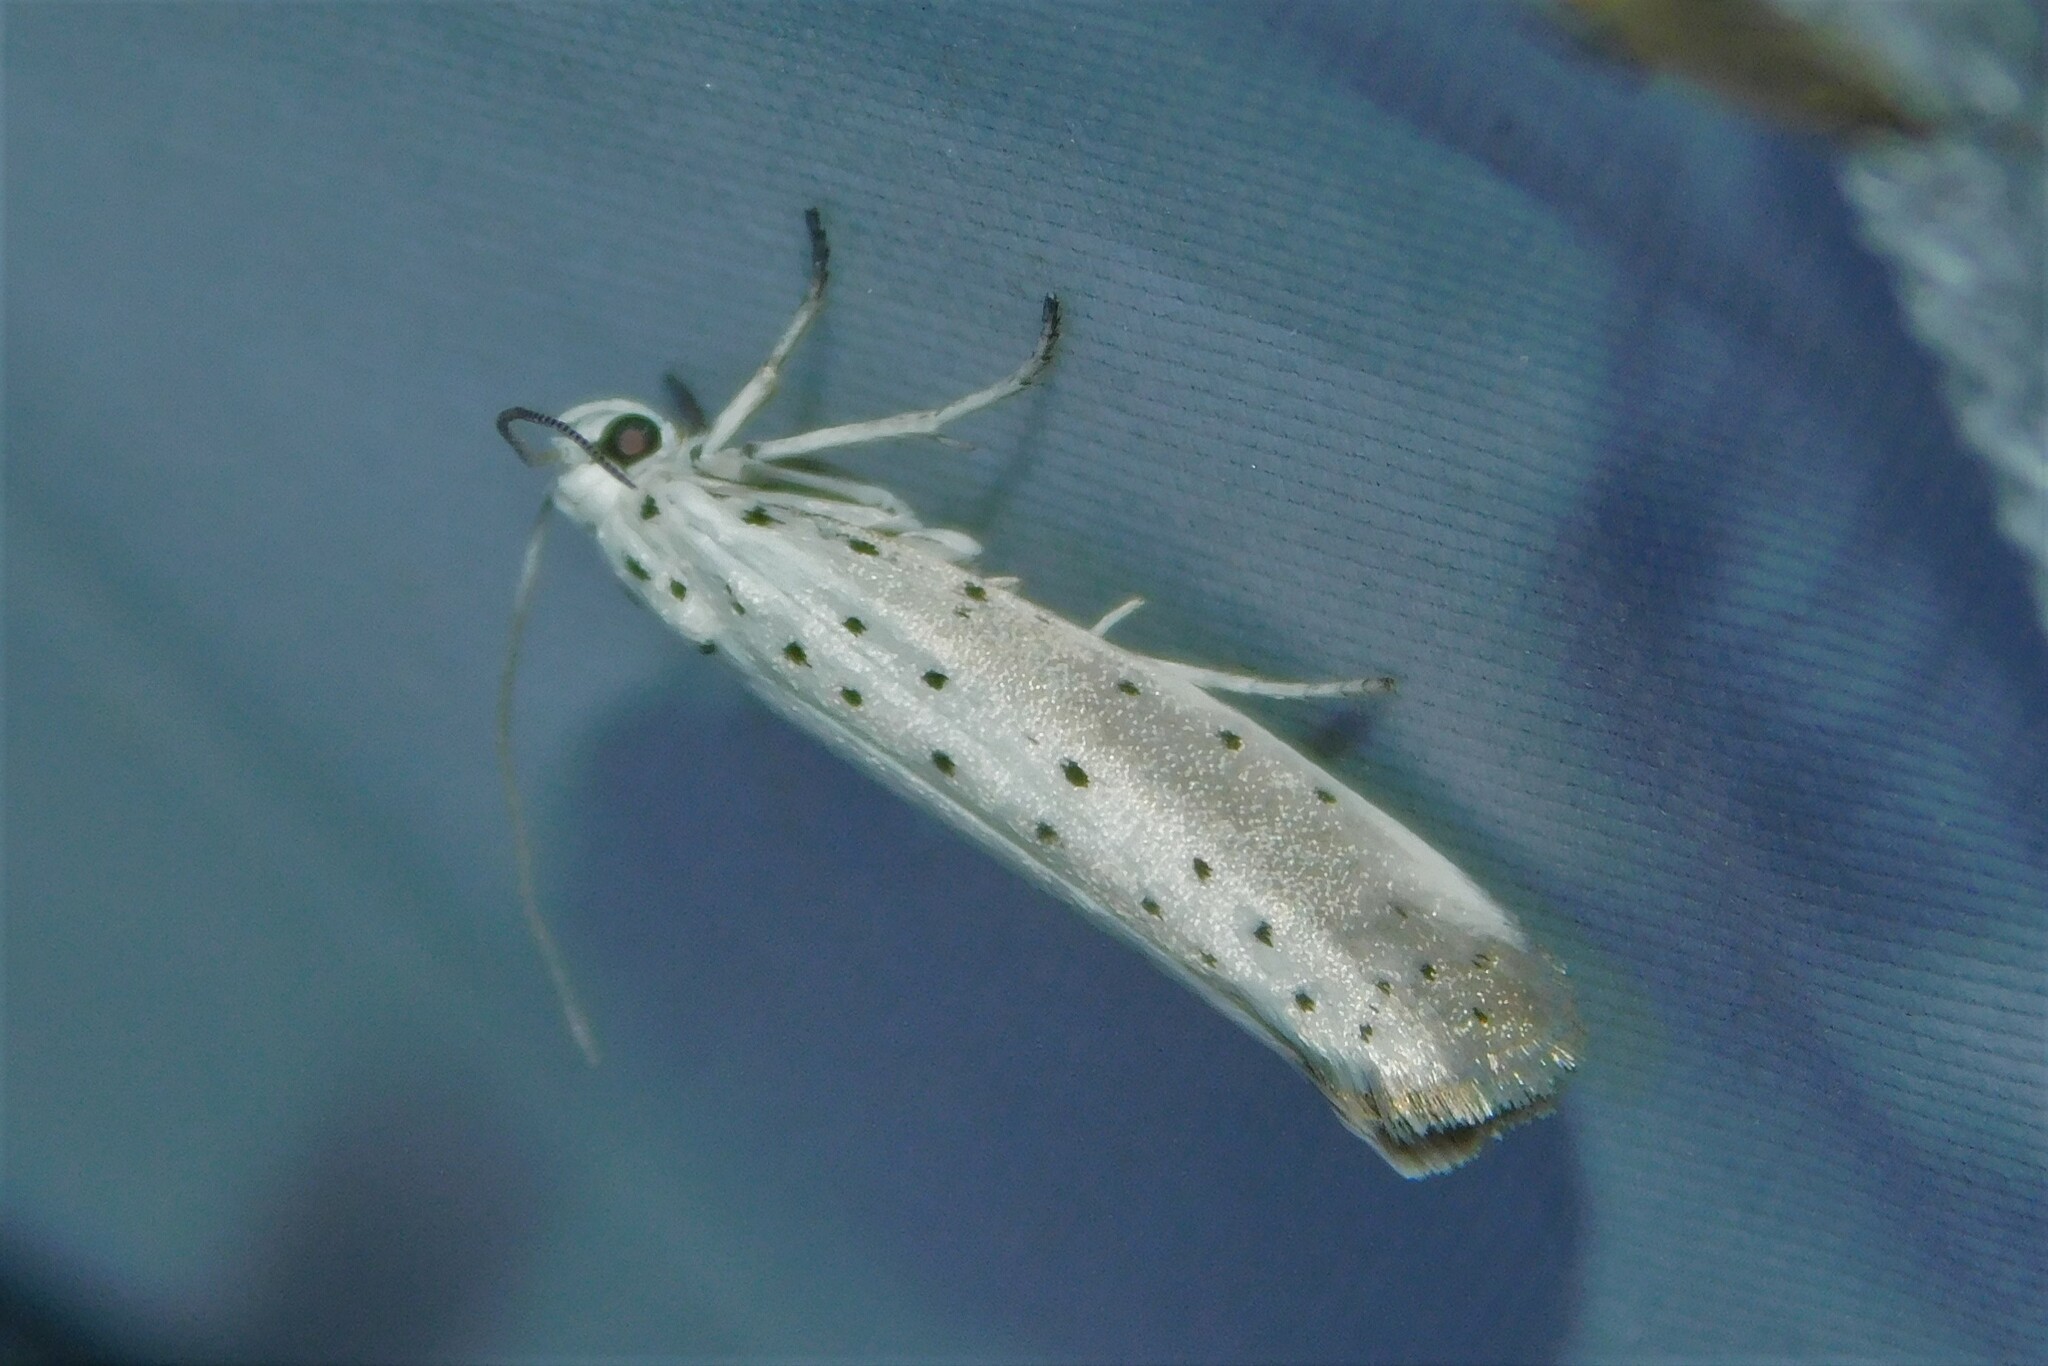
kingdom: Animalia
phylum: Arthropoda
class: Insecta
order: Lepidoptera
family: Yponomeutidae
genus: Yponomeuta
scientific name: Yponomeuta padella
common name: Orchard ermine
